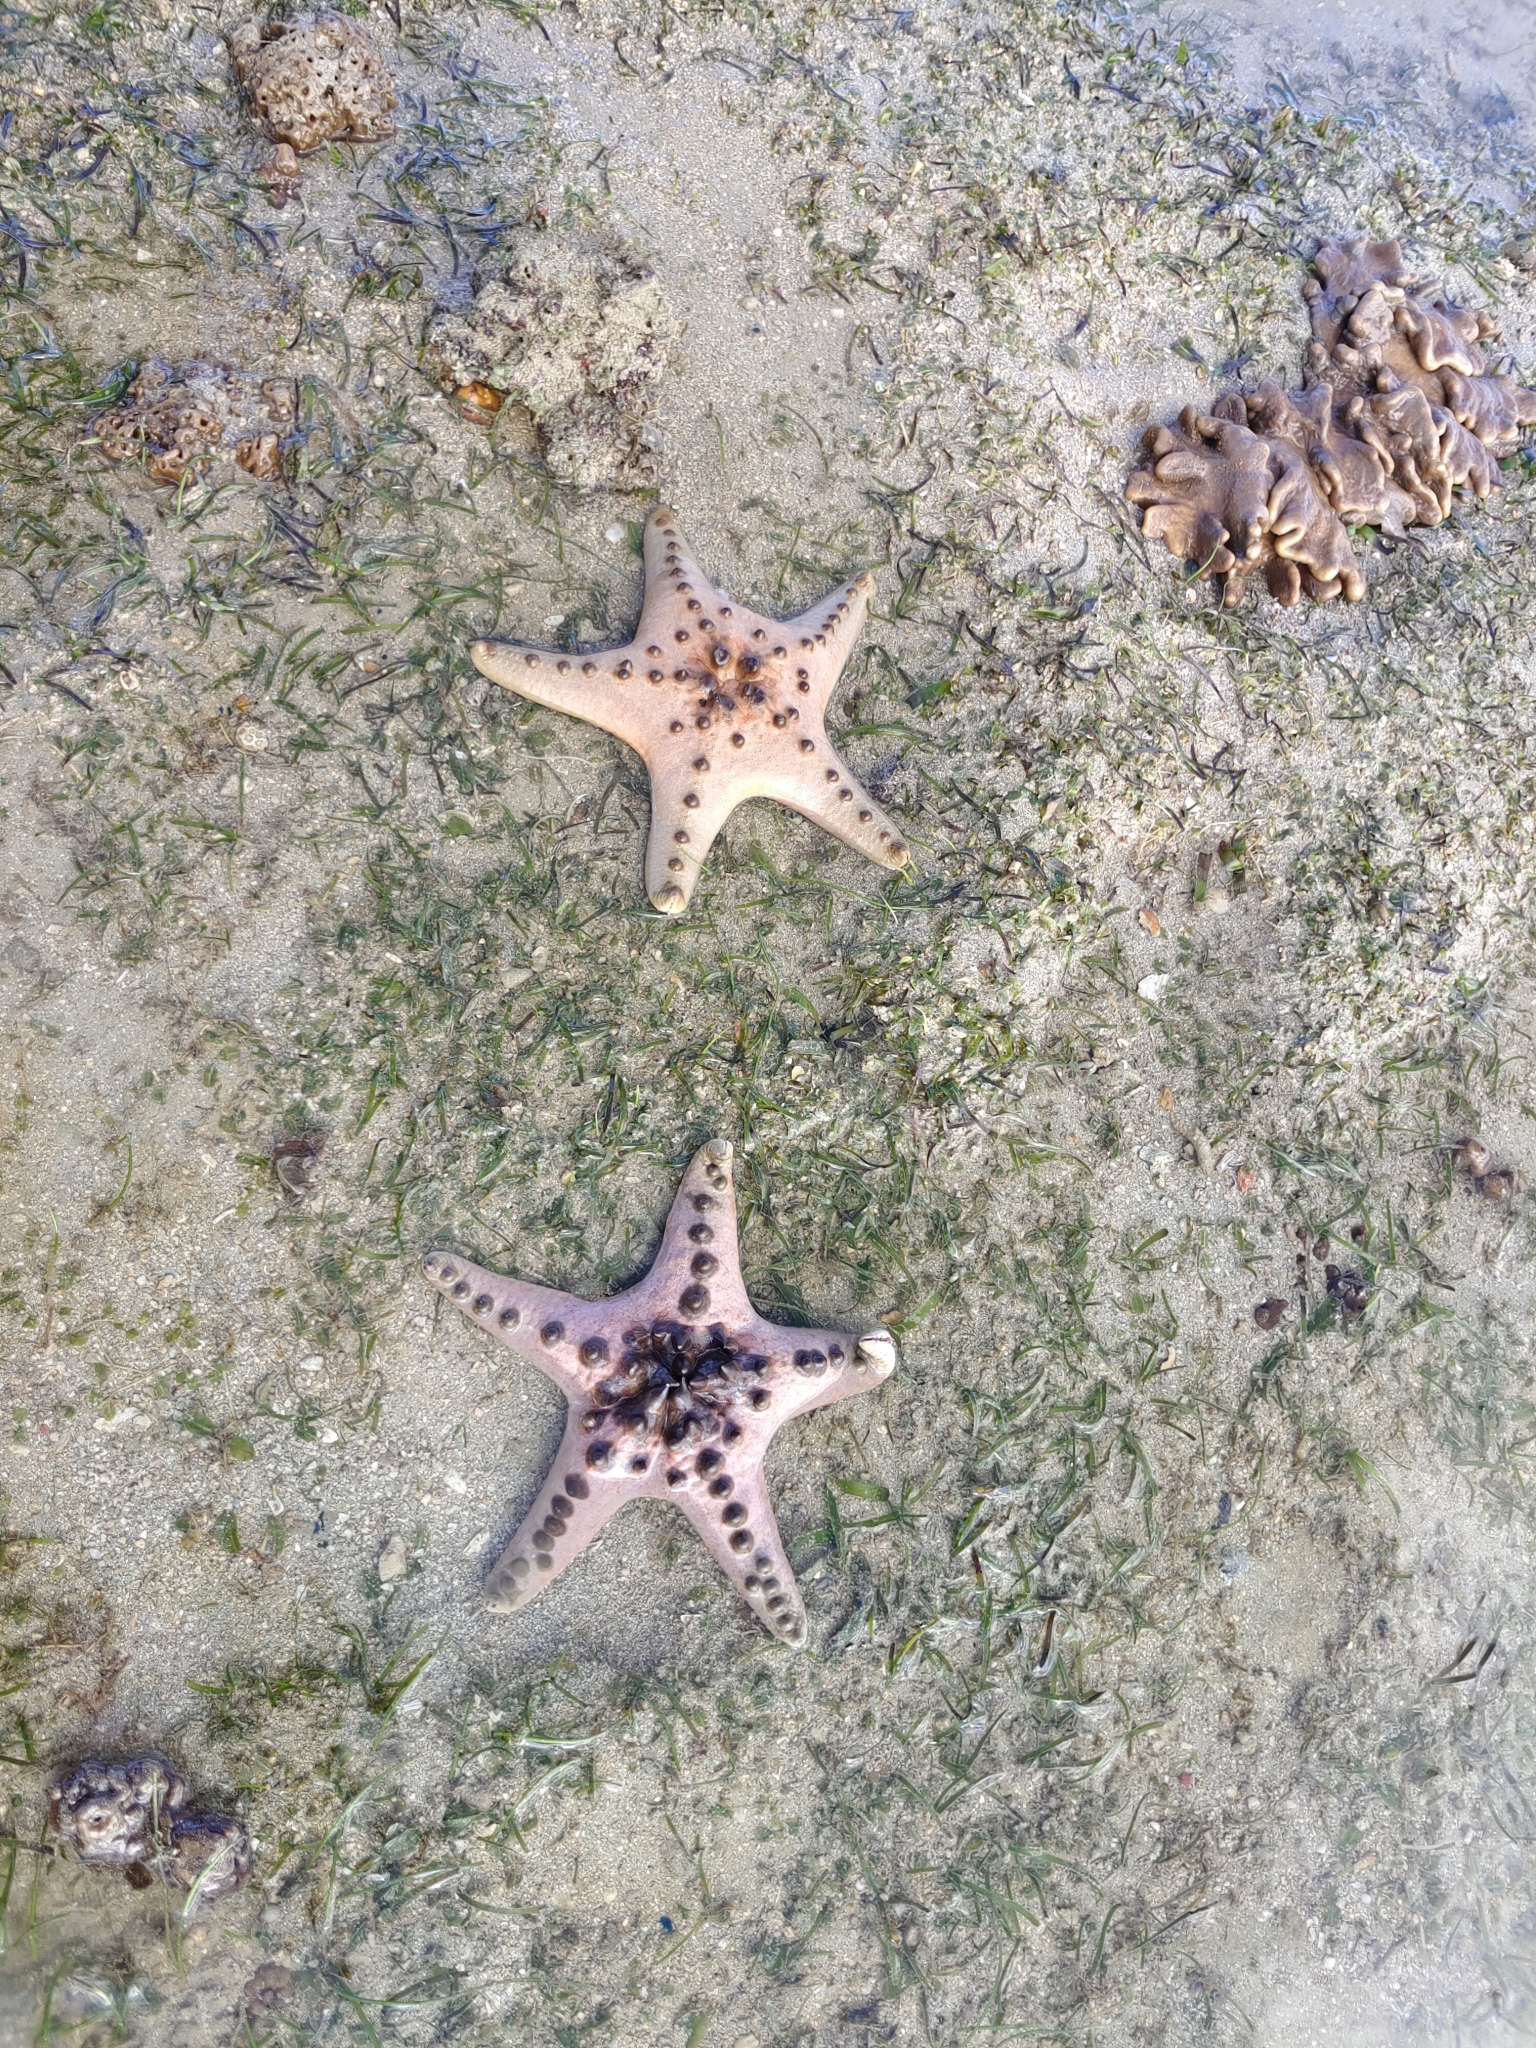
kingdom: Animalia
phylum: Echinodermata
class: Asteroidea
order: Valvatida
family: Oreasteridae
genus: Protoreaster
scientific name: Protoreaster nodosus
